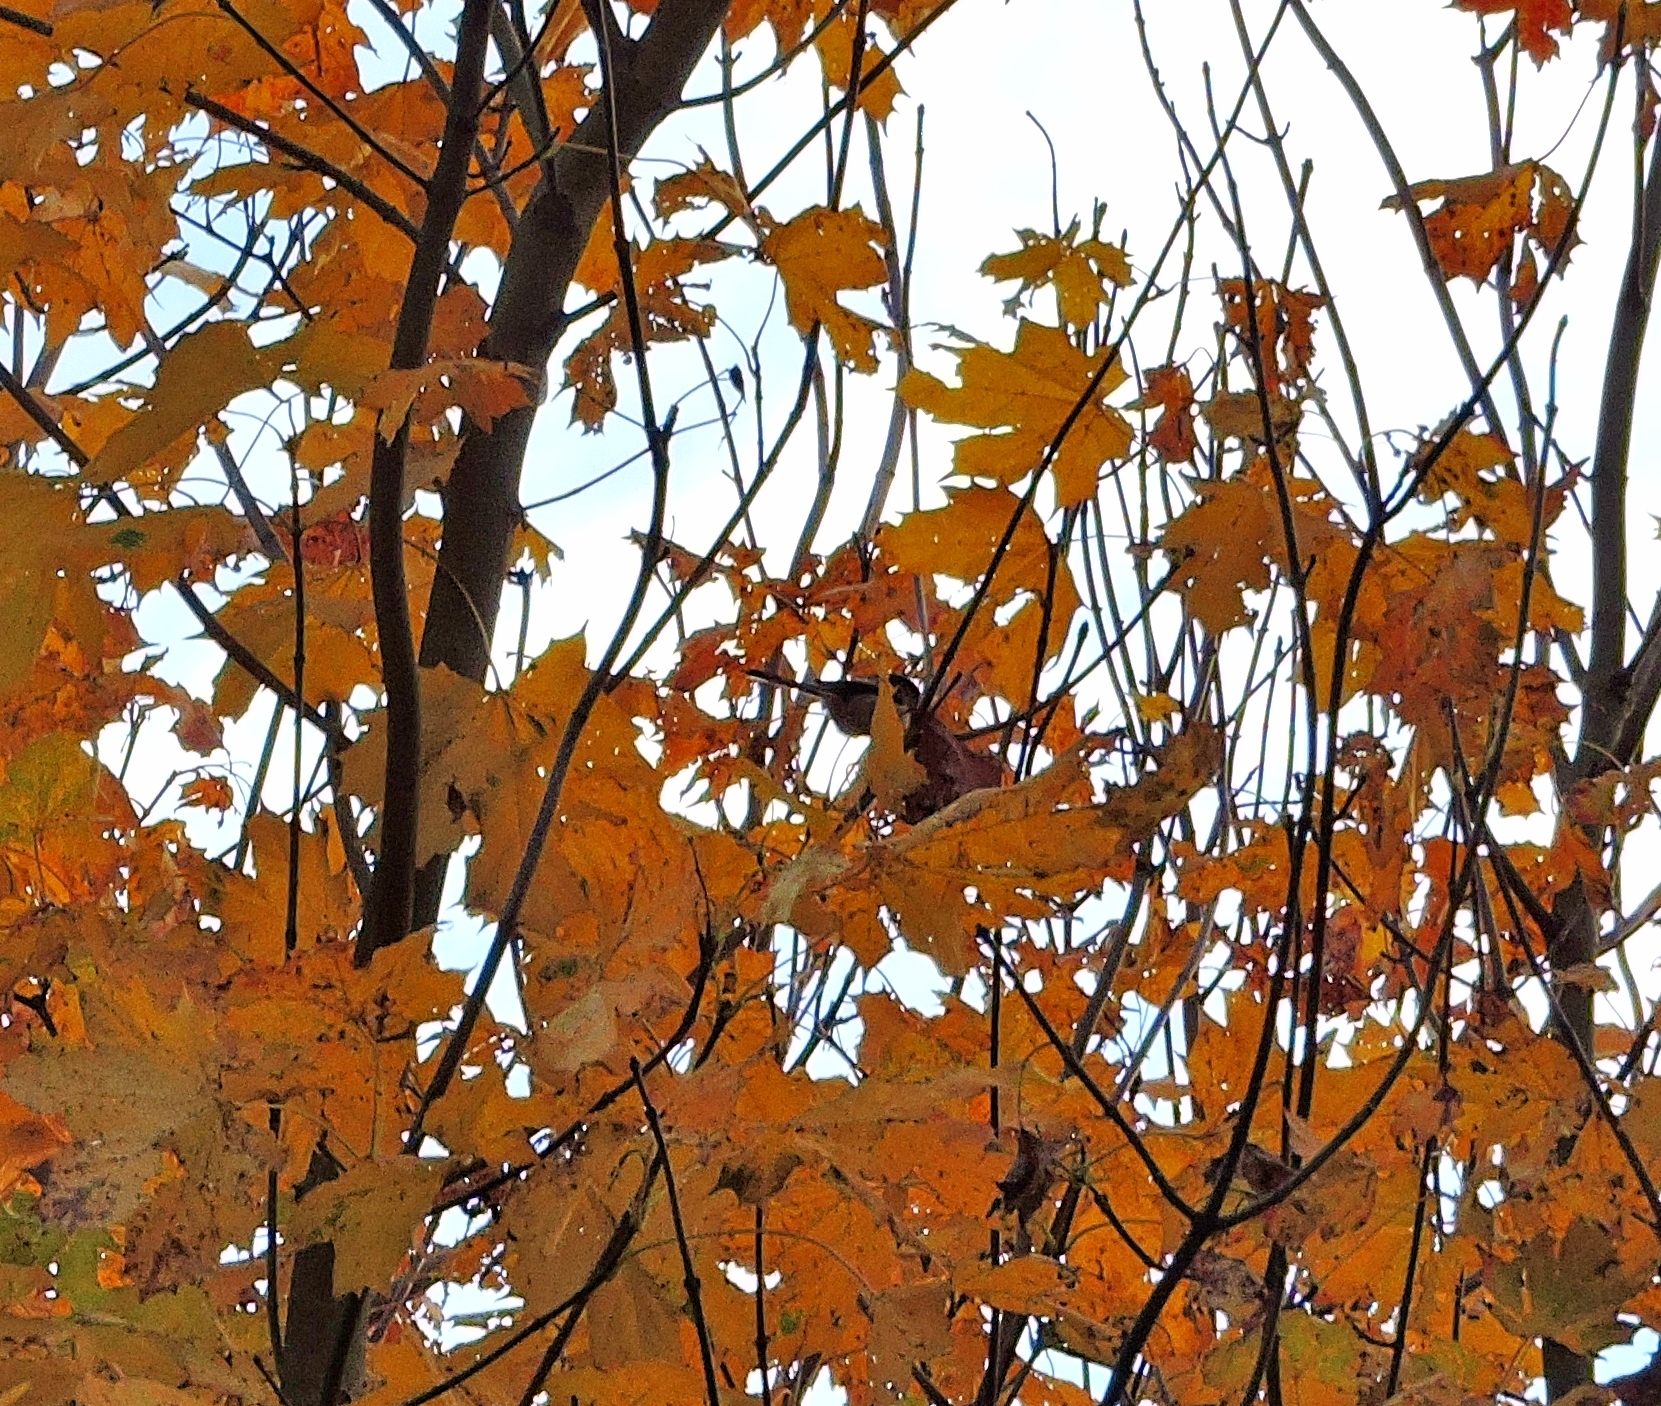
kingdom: Animalia
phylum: Chordata
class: Aves
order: Passeriformes
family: Aegithalidae
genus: Aegithalos
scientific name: Aegithalos caudatus
